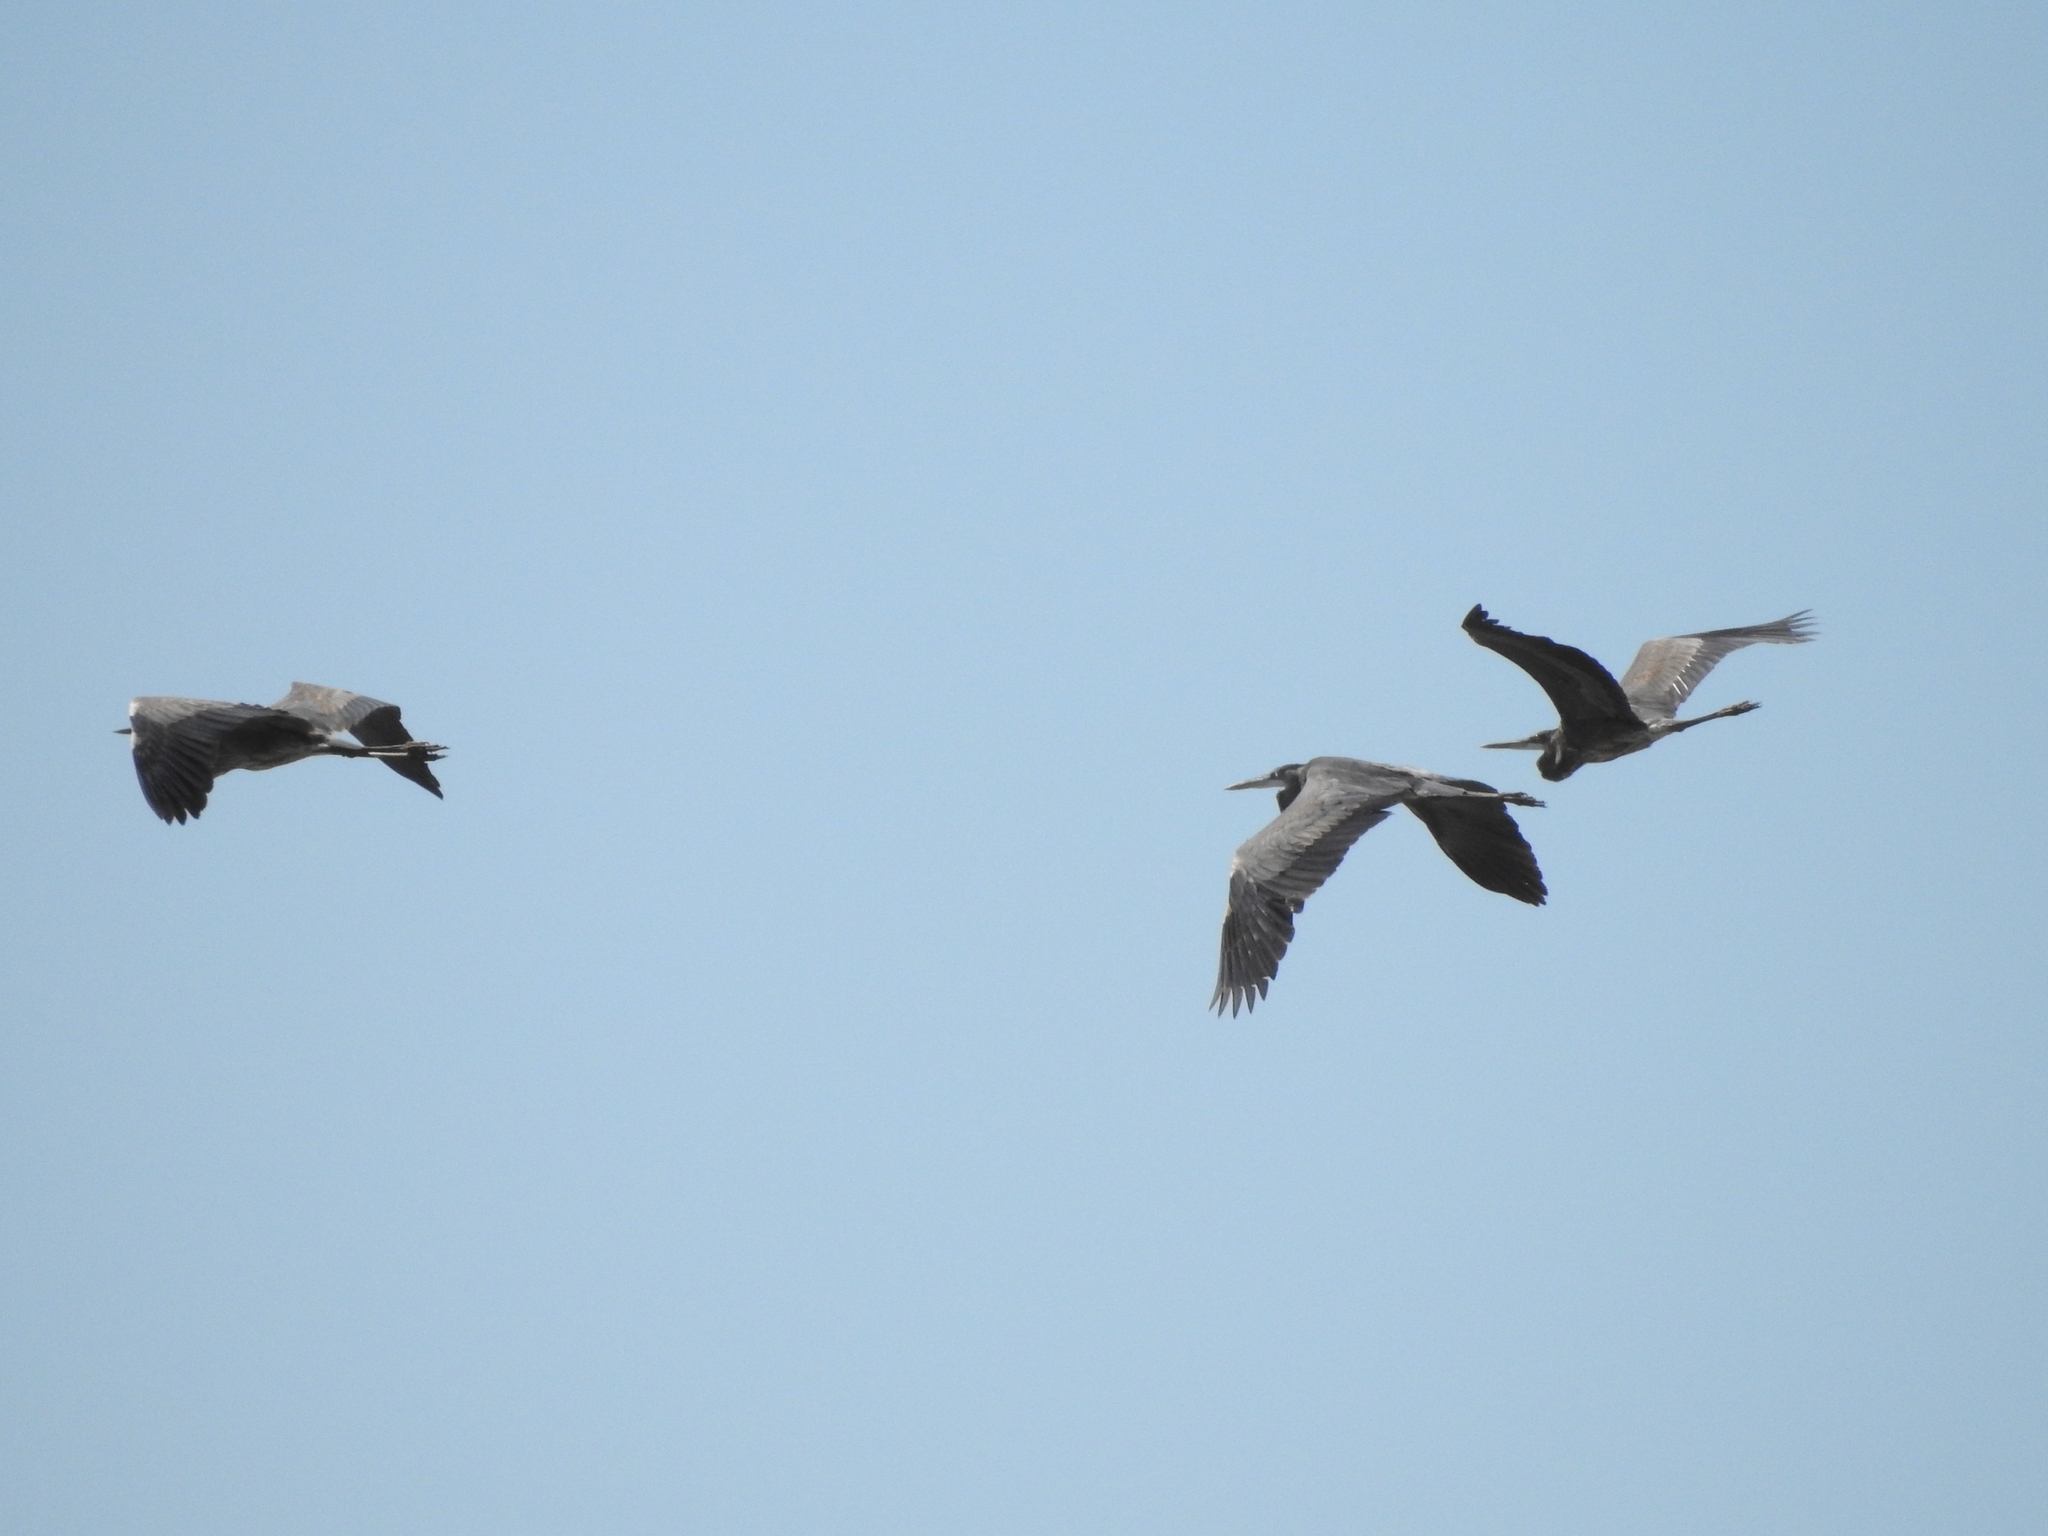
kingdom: Animalia
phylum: Chordata
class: Aves
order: Pelecaniformes
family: Ardeidae
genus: Ardea
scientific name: Ardea herodias
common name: Great blue heron
